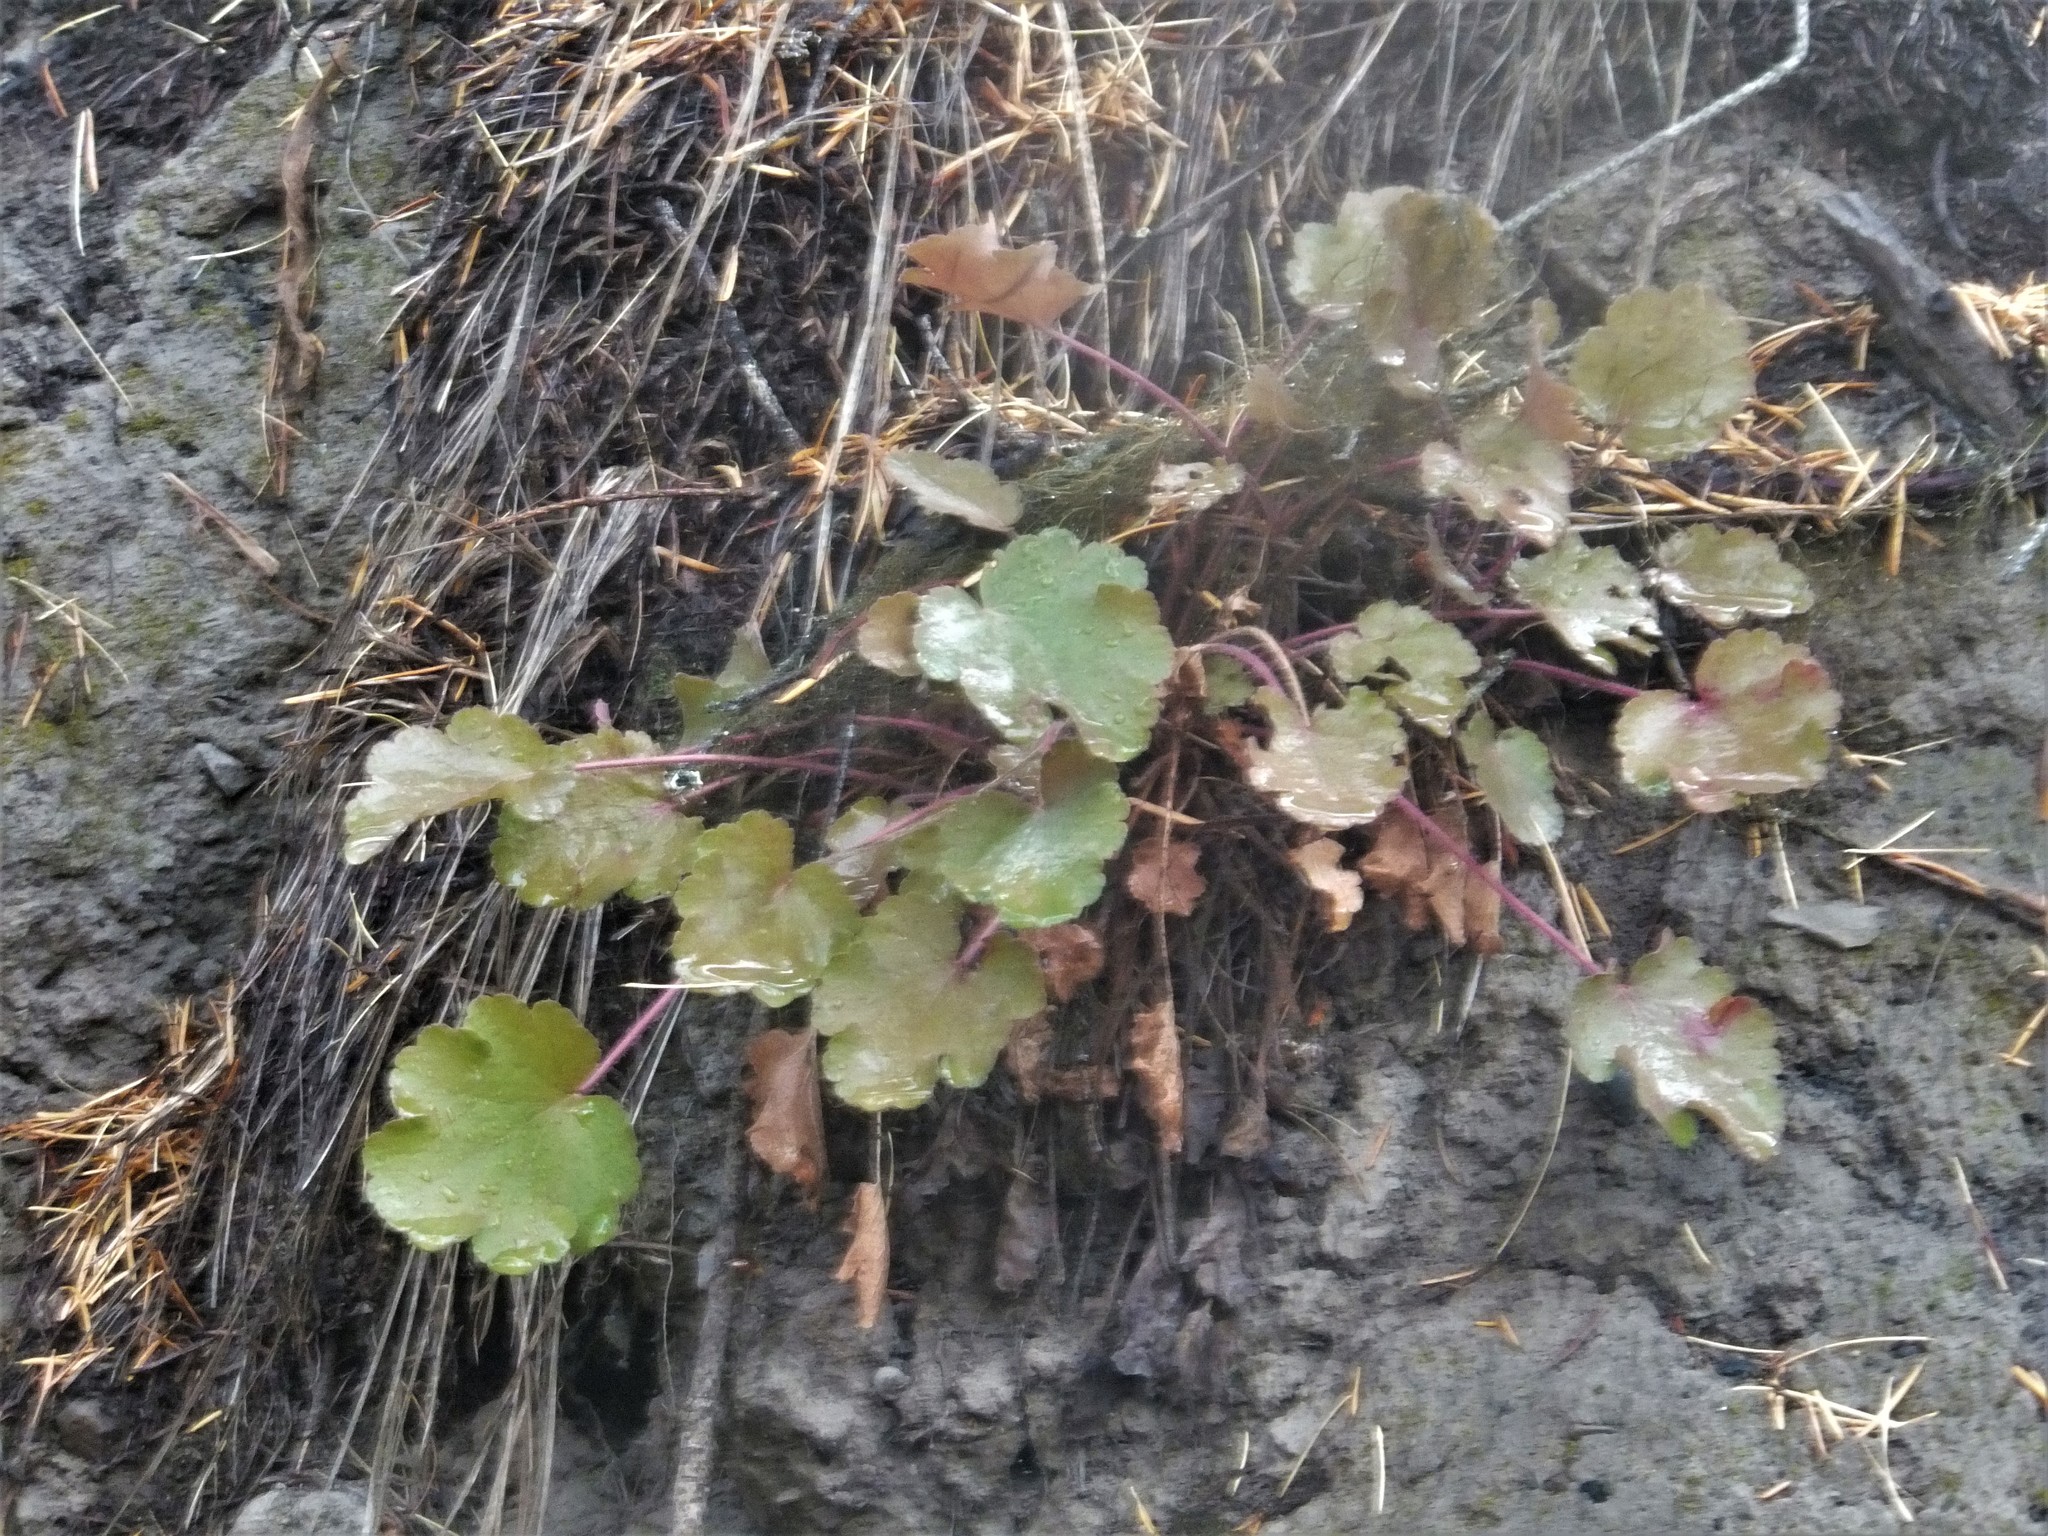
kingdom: Plantae
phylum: Tracheophyta
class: Magnoliopsida
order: Saxifragales
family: Saxifragaceae
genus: Heuchera
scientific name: Heuchera cylindrica
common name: Mat alumroot
